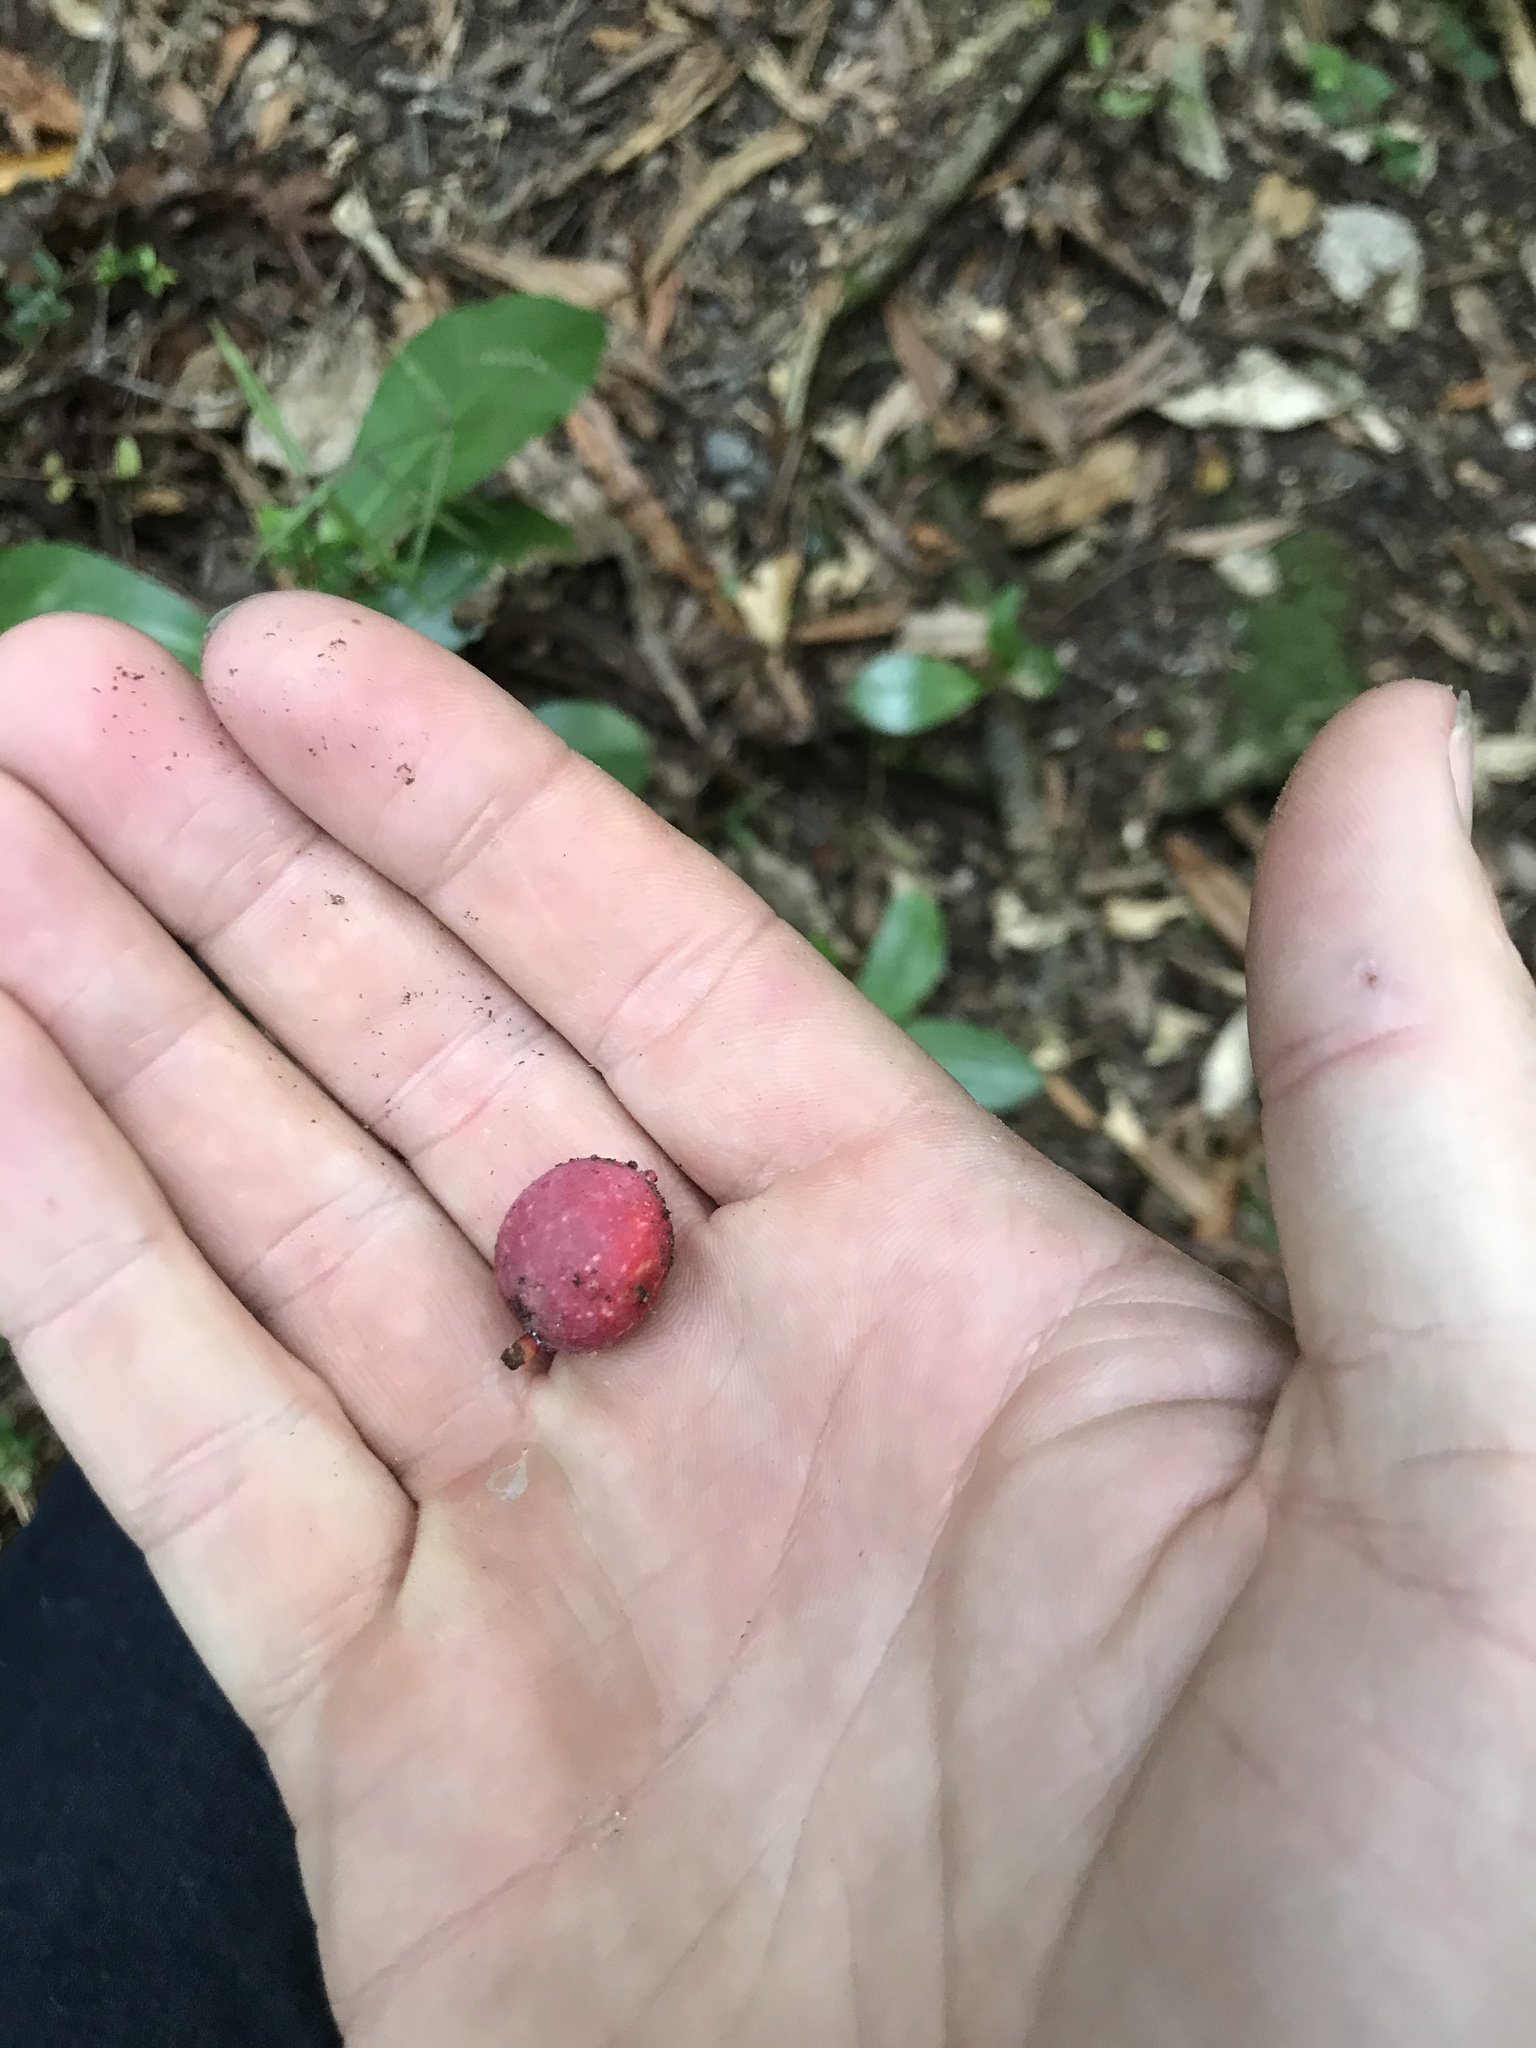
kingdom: Plantae
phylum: Tracheophyta
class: Pinopsida
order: Pinales
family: Podocarpaceae
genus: Prumnopitys
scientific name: Prumnopitys ferruginea
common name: Brown pine
